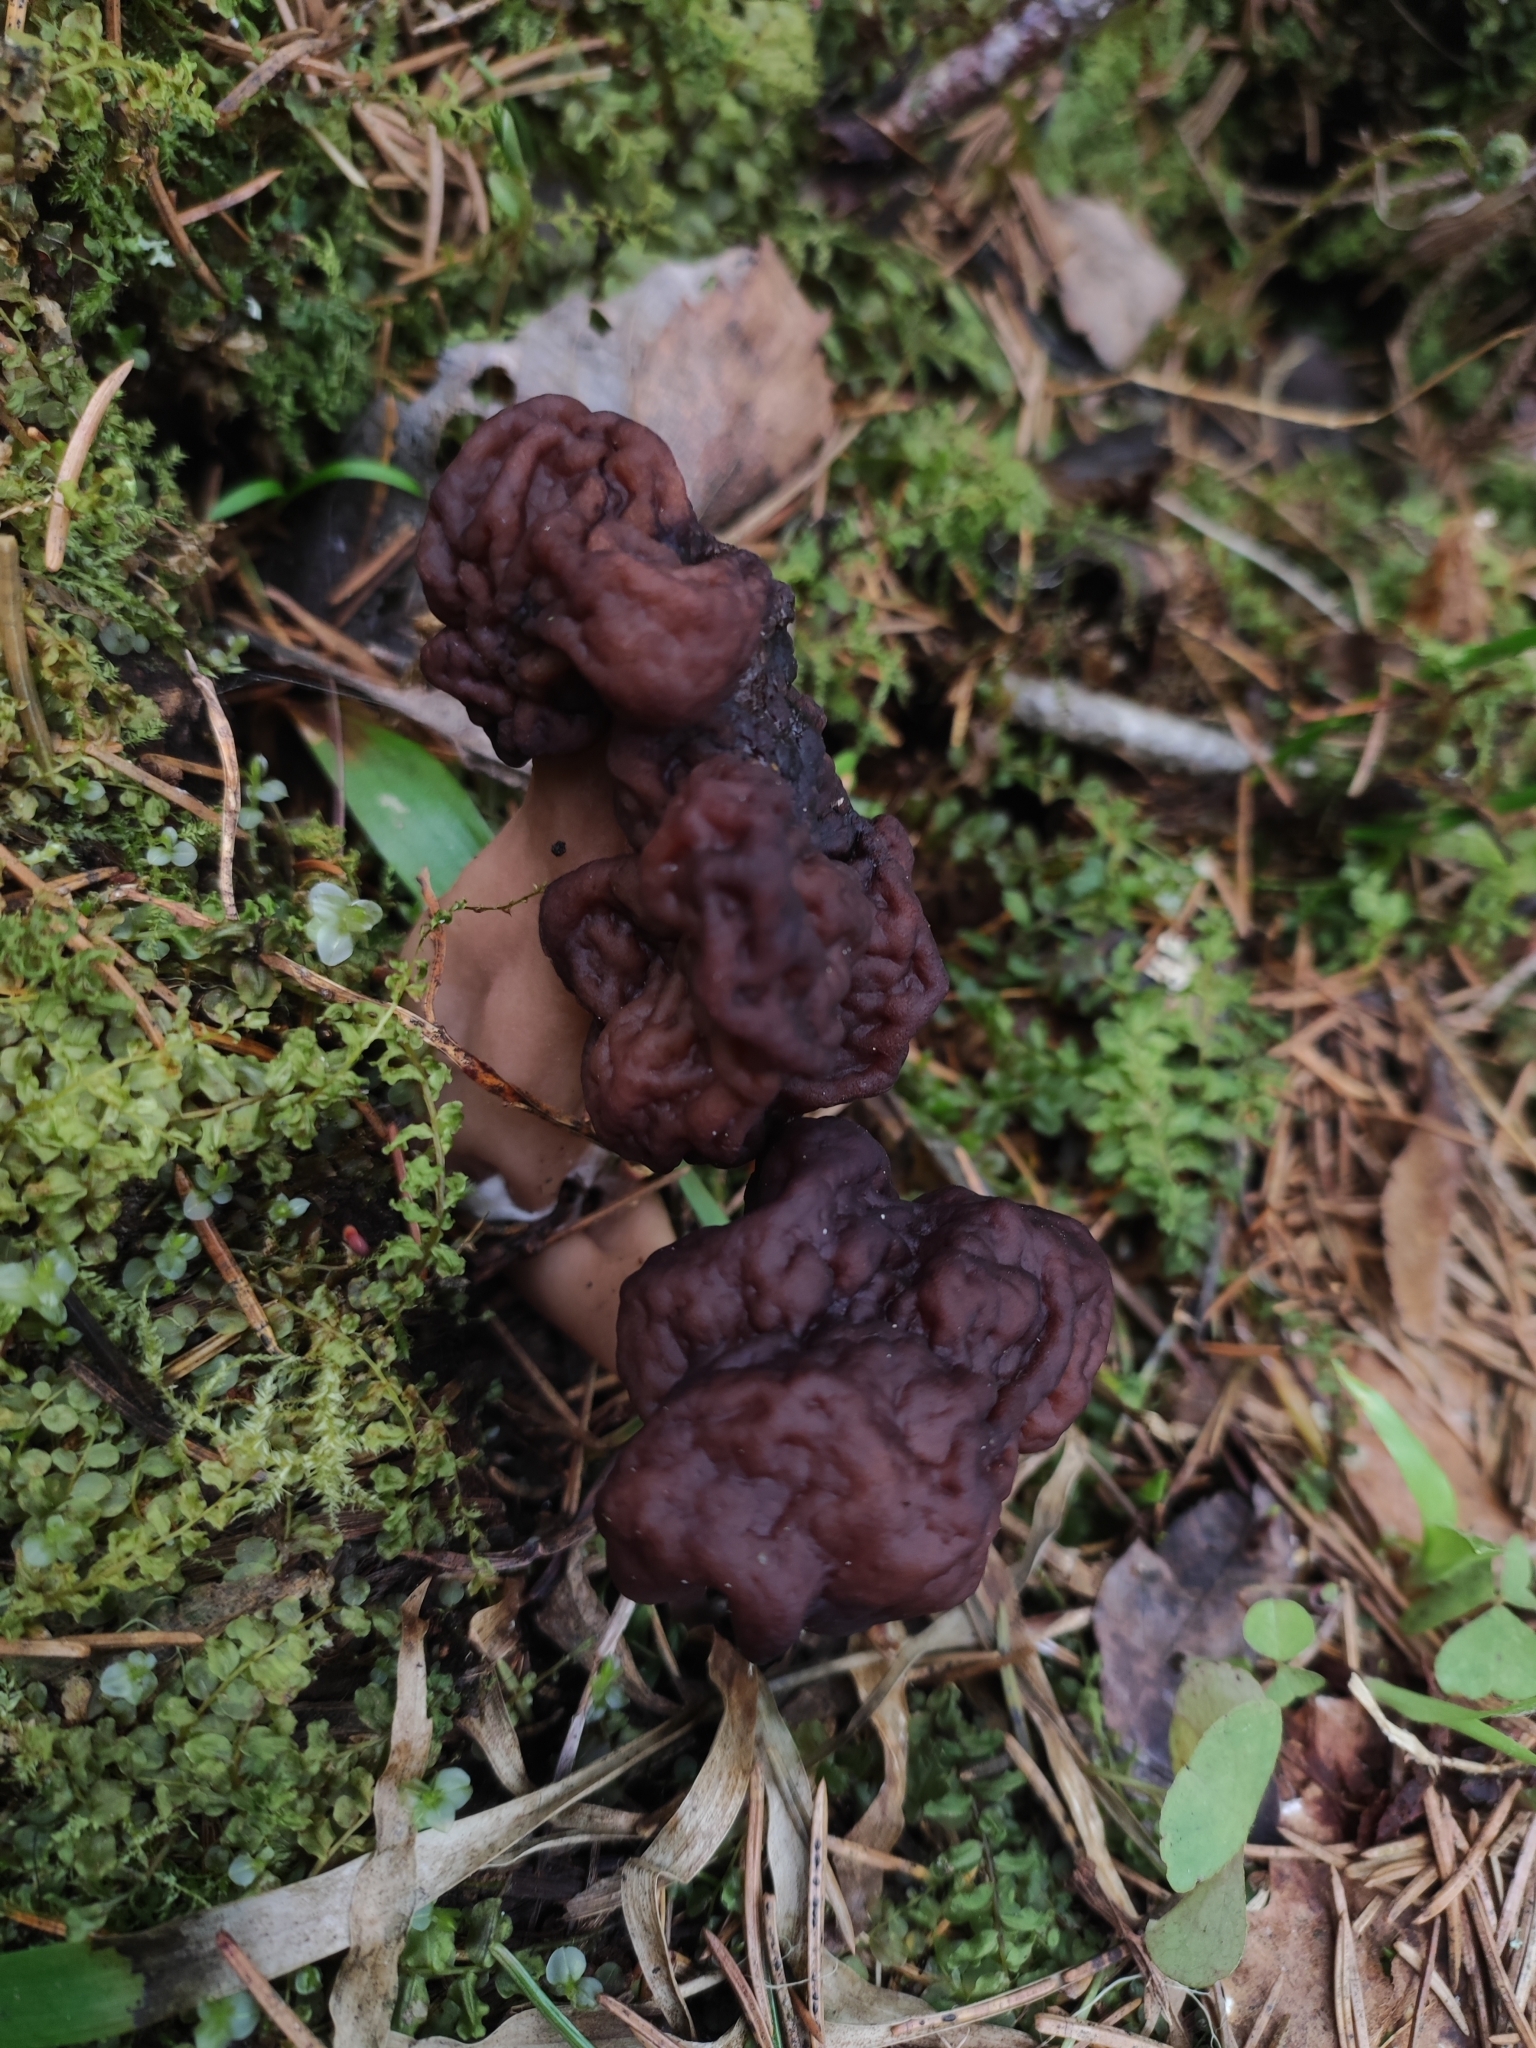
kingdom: Fungi
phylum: Ascomycota
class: Pezizomycetes
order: Pezizales
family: Discinaceae
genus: Gyromitra
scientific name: Gyromitra esculenta
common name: False morel
